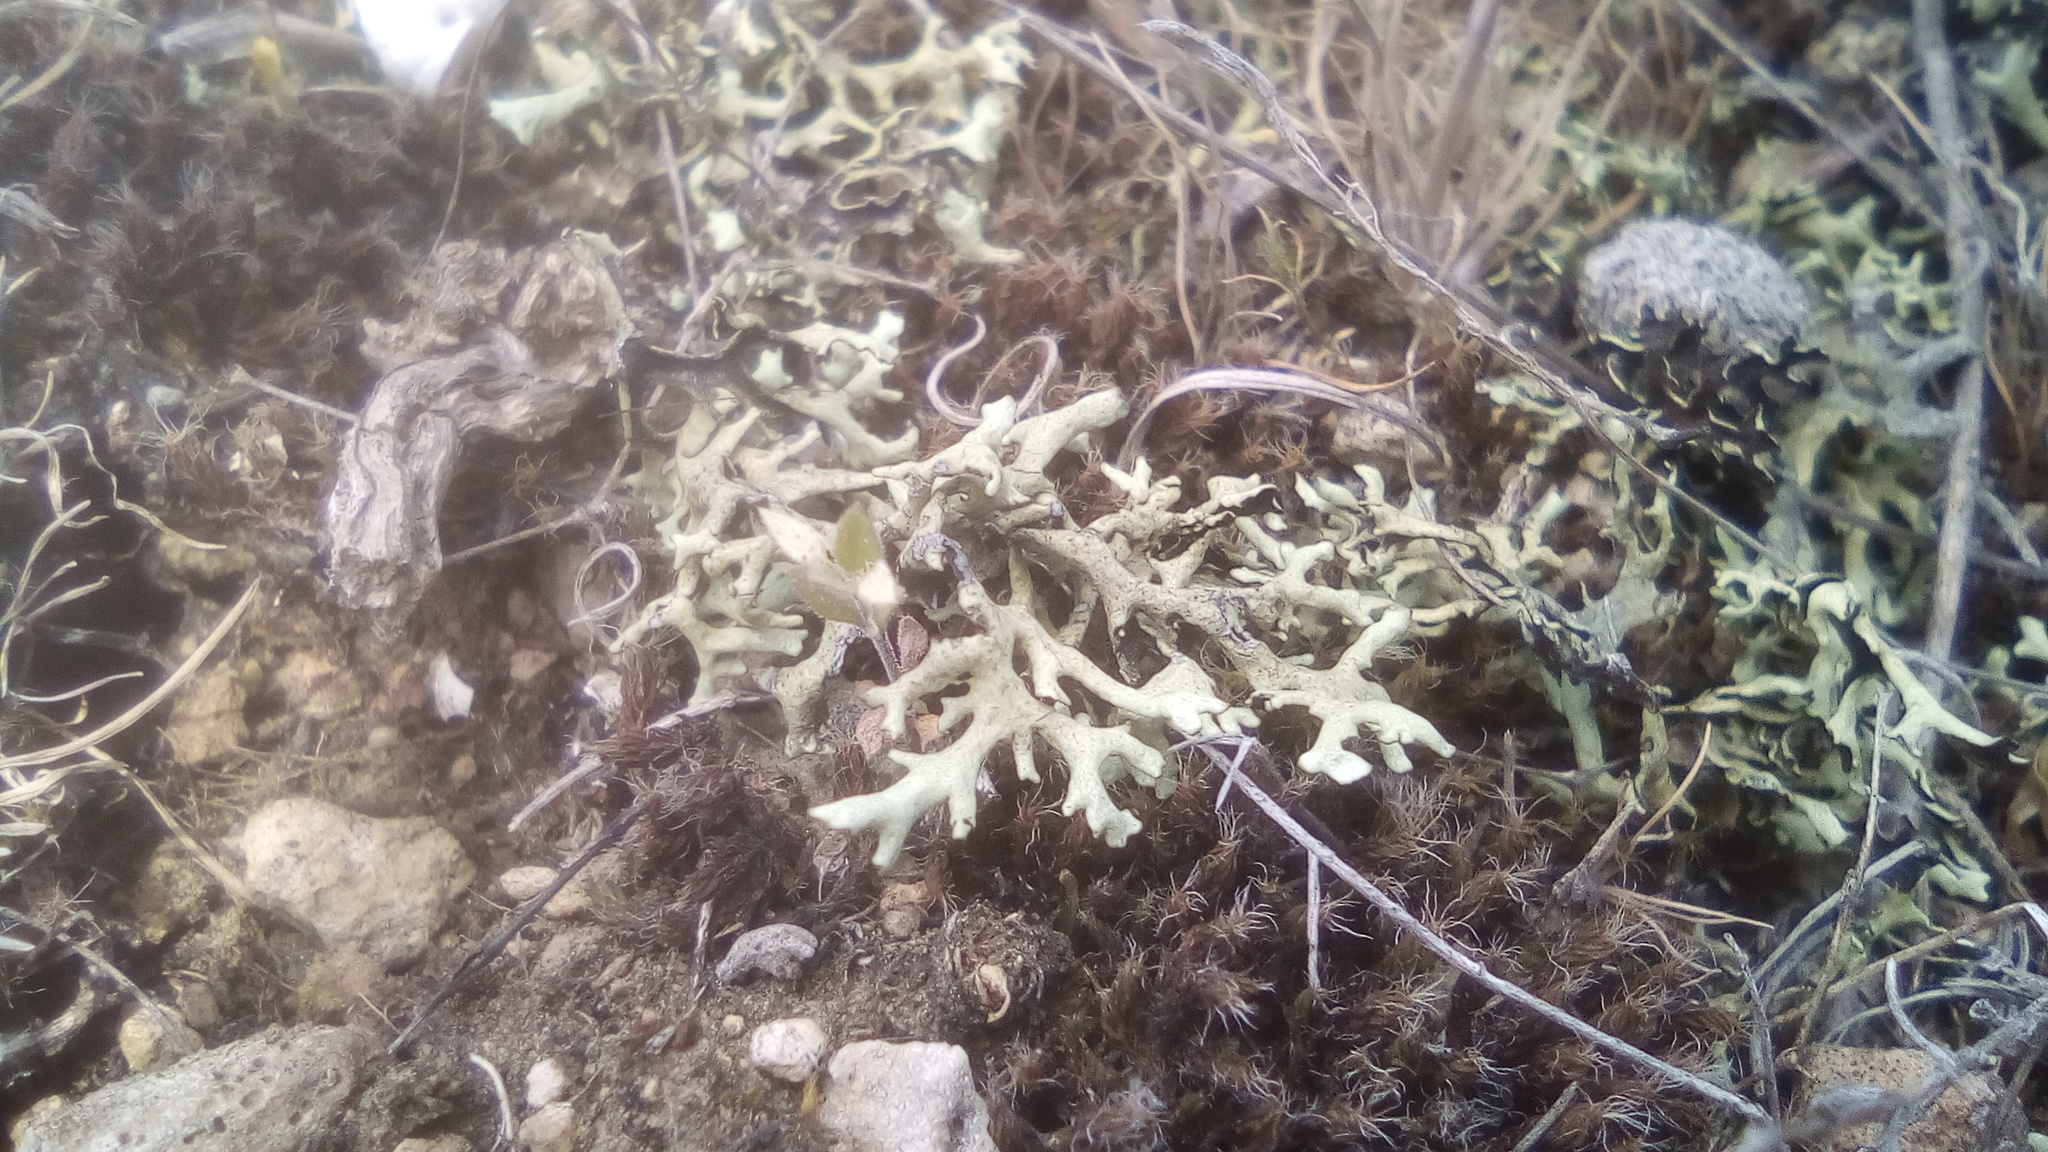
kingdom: Fungi
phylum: Ascomycota
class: Lecanoromycetes
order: Lecanorales
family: Parmeliaceae
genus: Xanthoparmelia
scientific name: Xanthoparmelia camtschadalis
